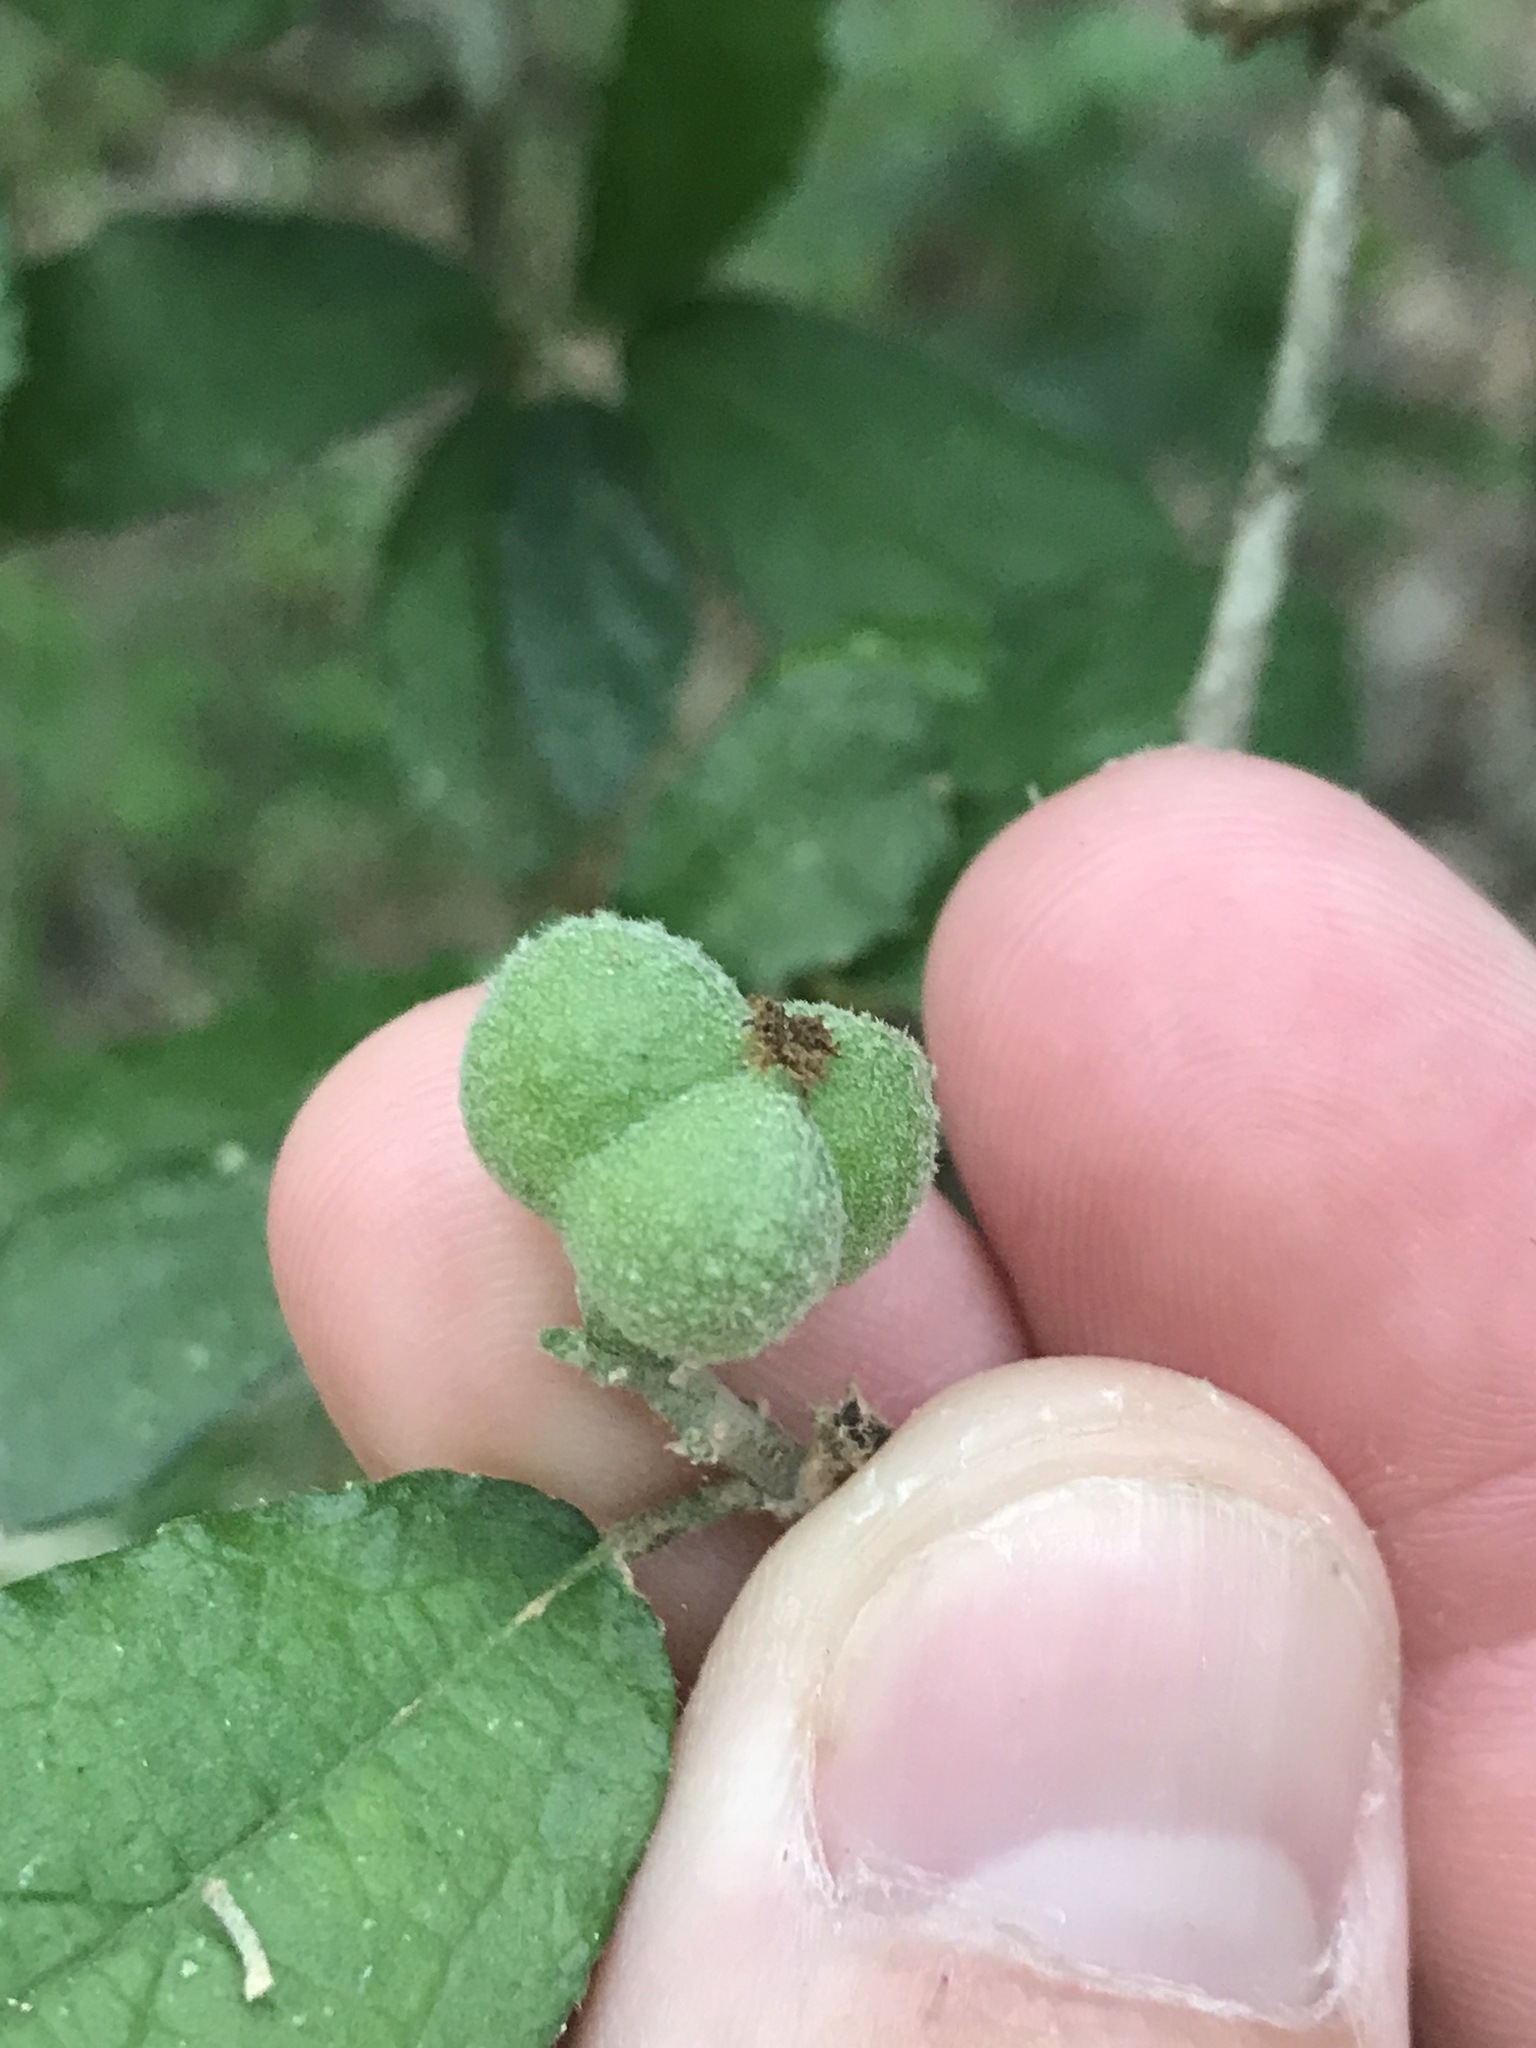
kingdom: Plantae
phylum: Tracheophyta
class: Magnoliopsida
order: Malpighiales
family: Euphorbiaceae
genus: Bernardia
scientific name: Bernardia myricifolia
